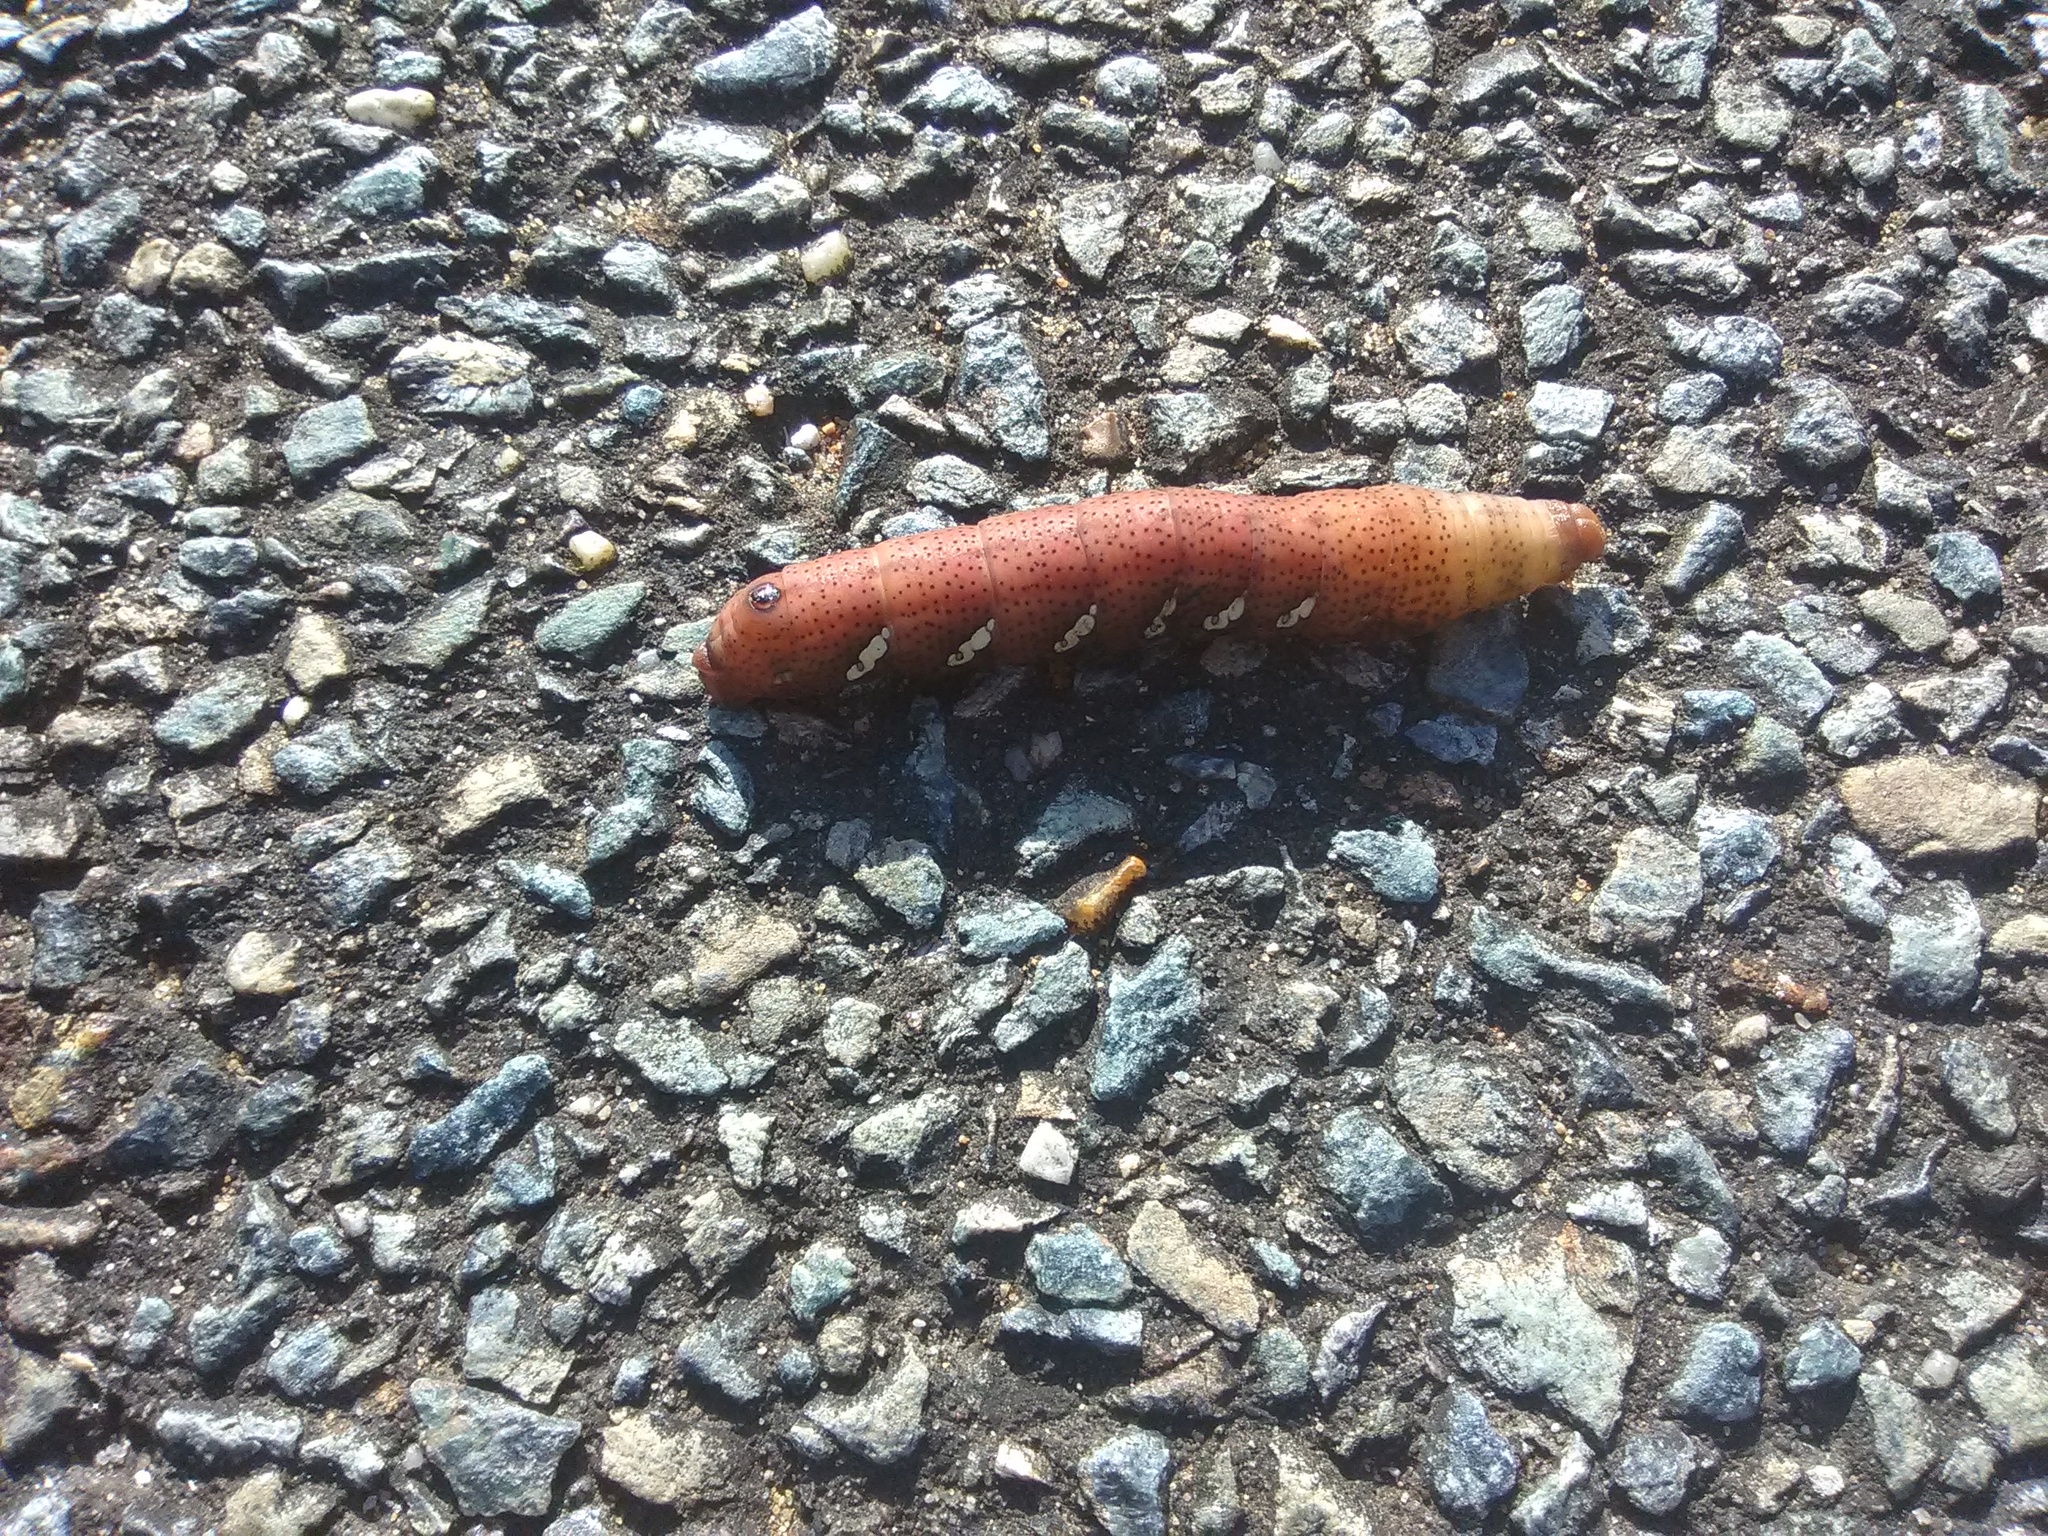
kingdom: Animalia
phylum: Arthropoda
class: Insecta
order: Lepidoptera
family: Sphingidae
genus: Eumorpha
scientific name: Eumorpha achemon
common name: Achemon sphinx
